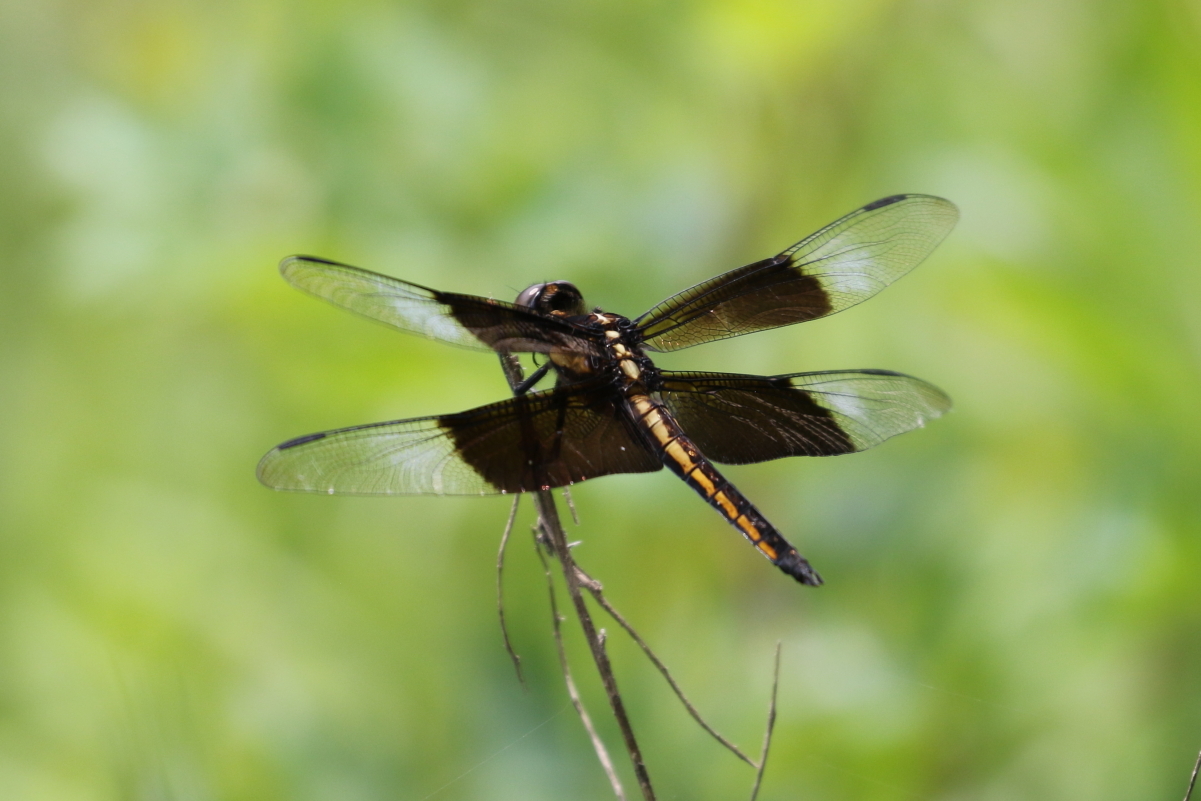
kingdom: Animalia
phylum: Arthropoda
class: Insecta
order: Odonata
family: Libellulidae
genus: Libellula
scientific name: Libellula luctuosa
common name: Widow skimmer
